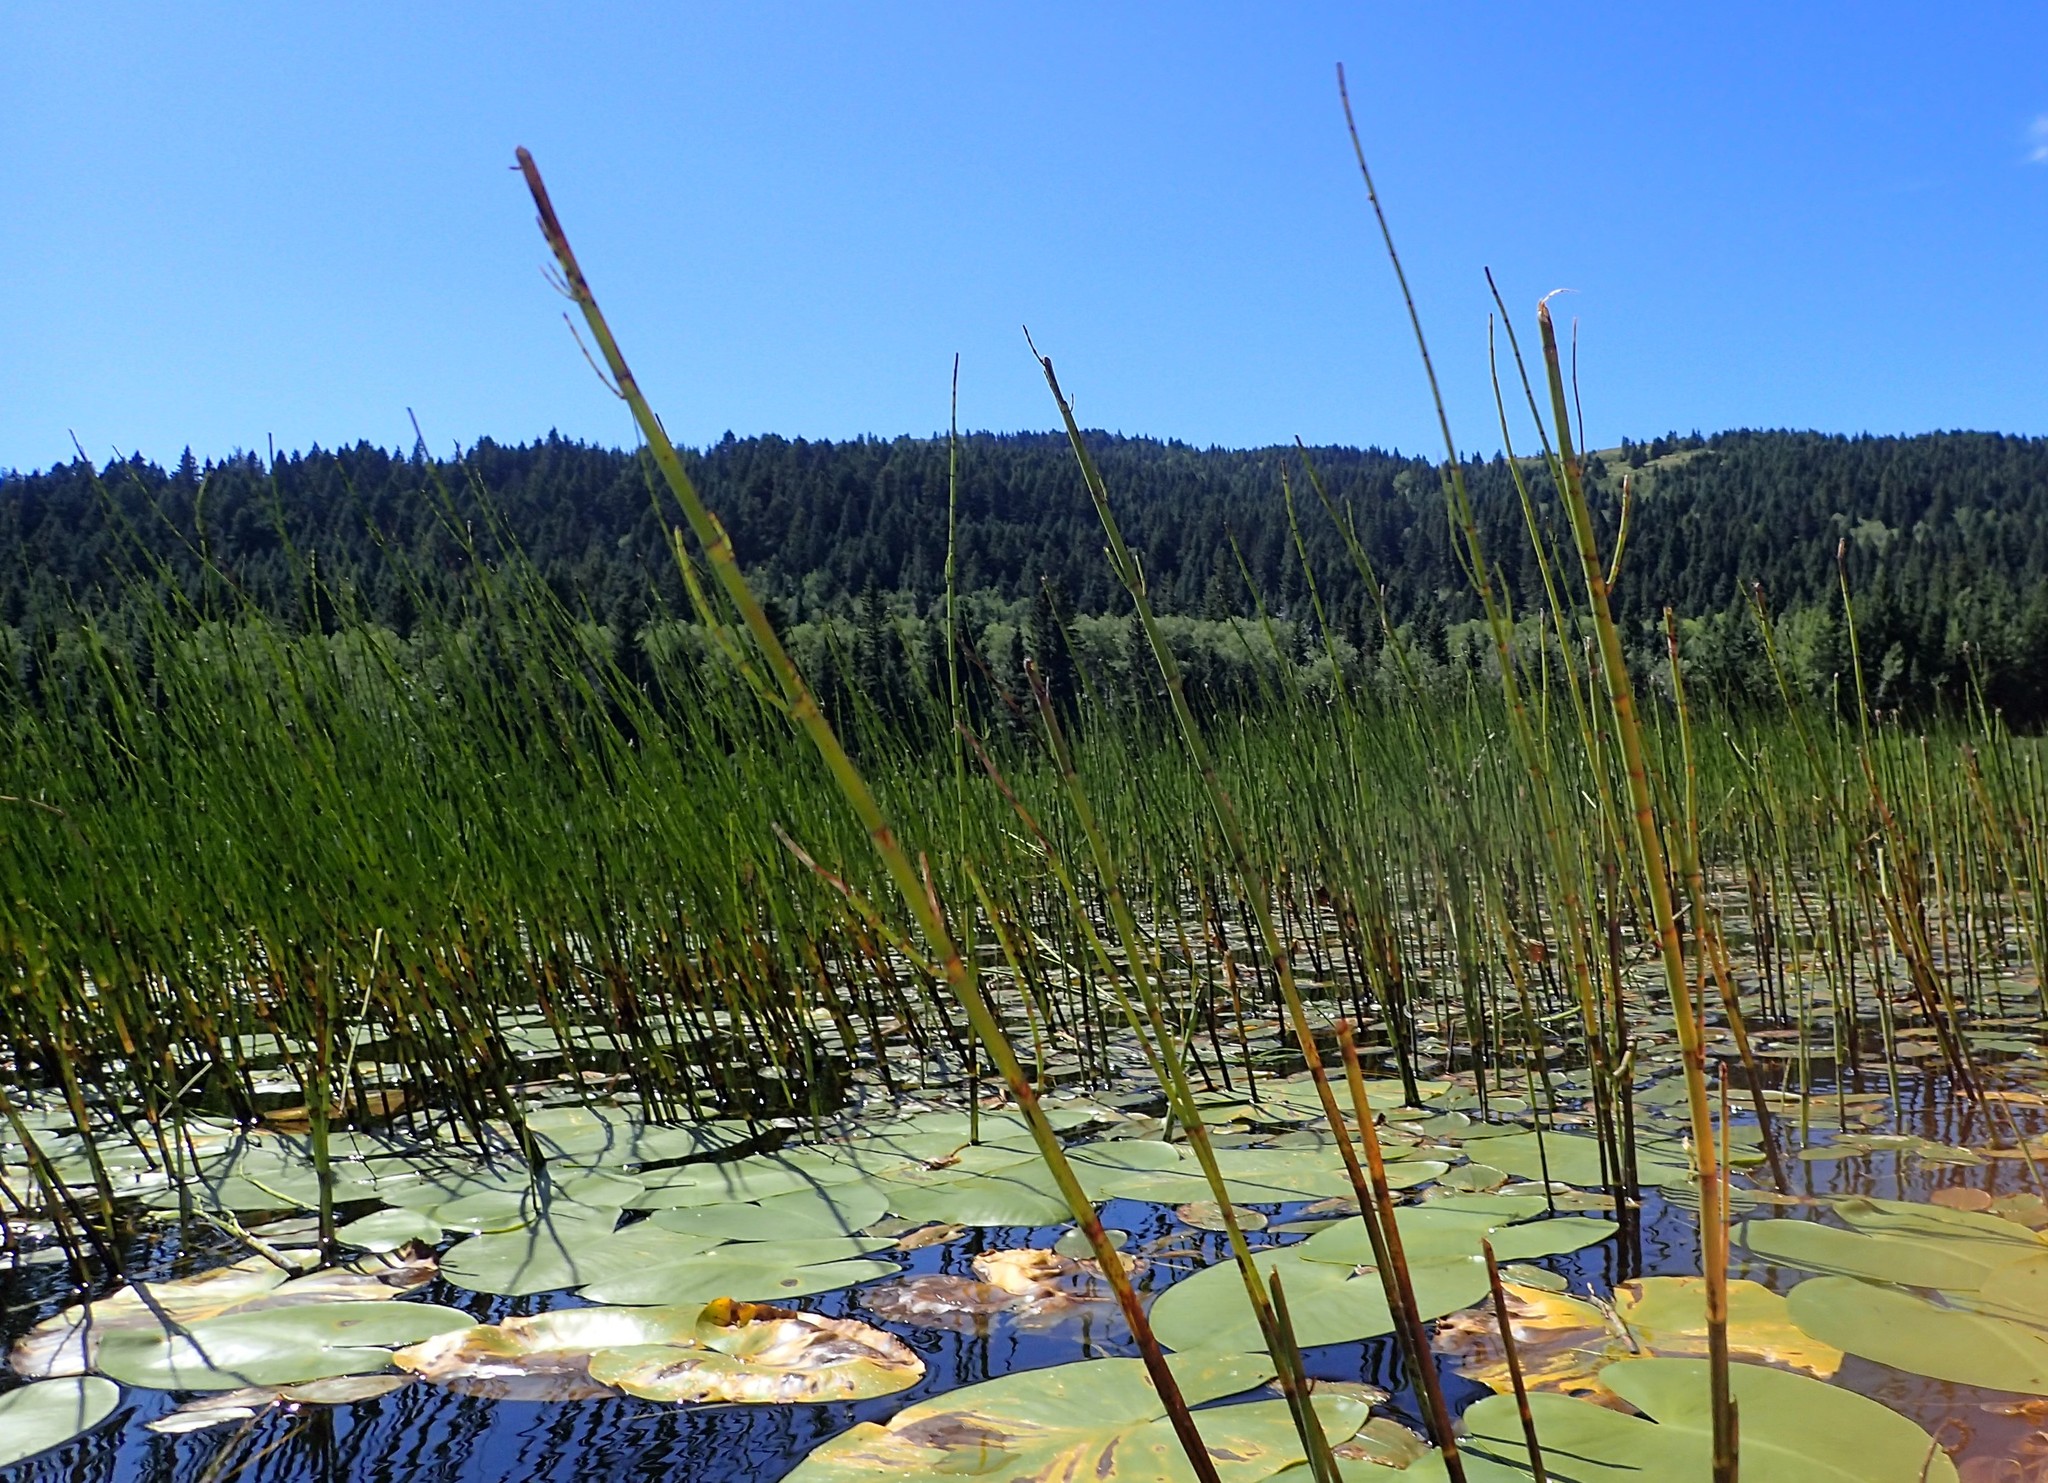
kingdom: Plantae
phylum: Tracheophyta
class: Polypodiopsida
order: Equisetales
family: Equisetaceae
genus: Equisetum
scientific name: Equisetum fluviatile
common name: Water horsetail
